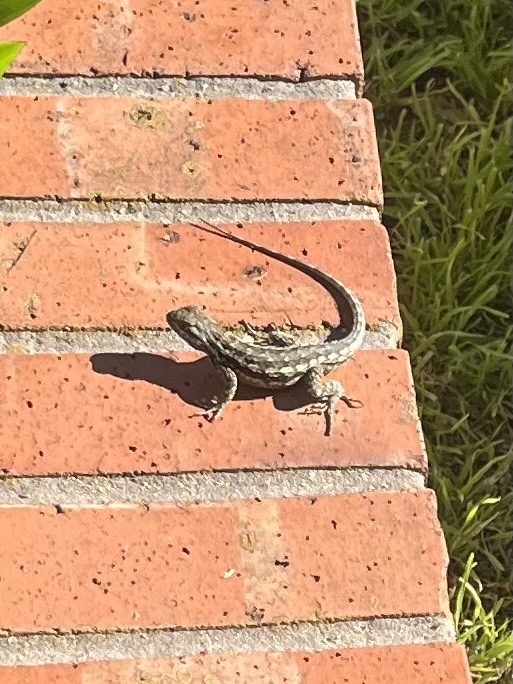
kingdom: Animalia
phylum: Chordata
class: Squamata
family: Phrynosomatidae
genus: Sceloporus
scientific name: Sceloporus olivaceus
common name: Texas spiny lizard
